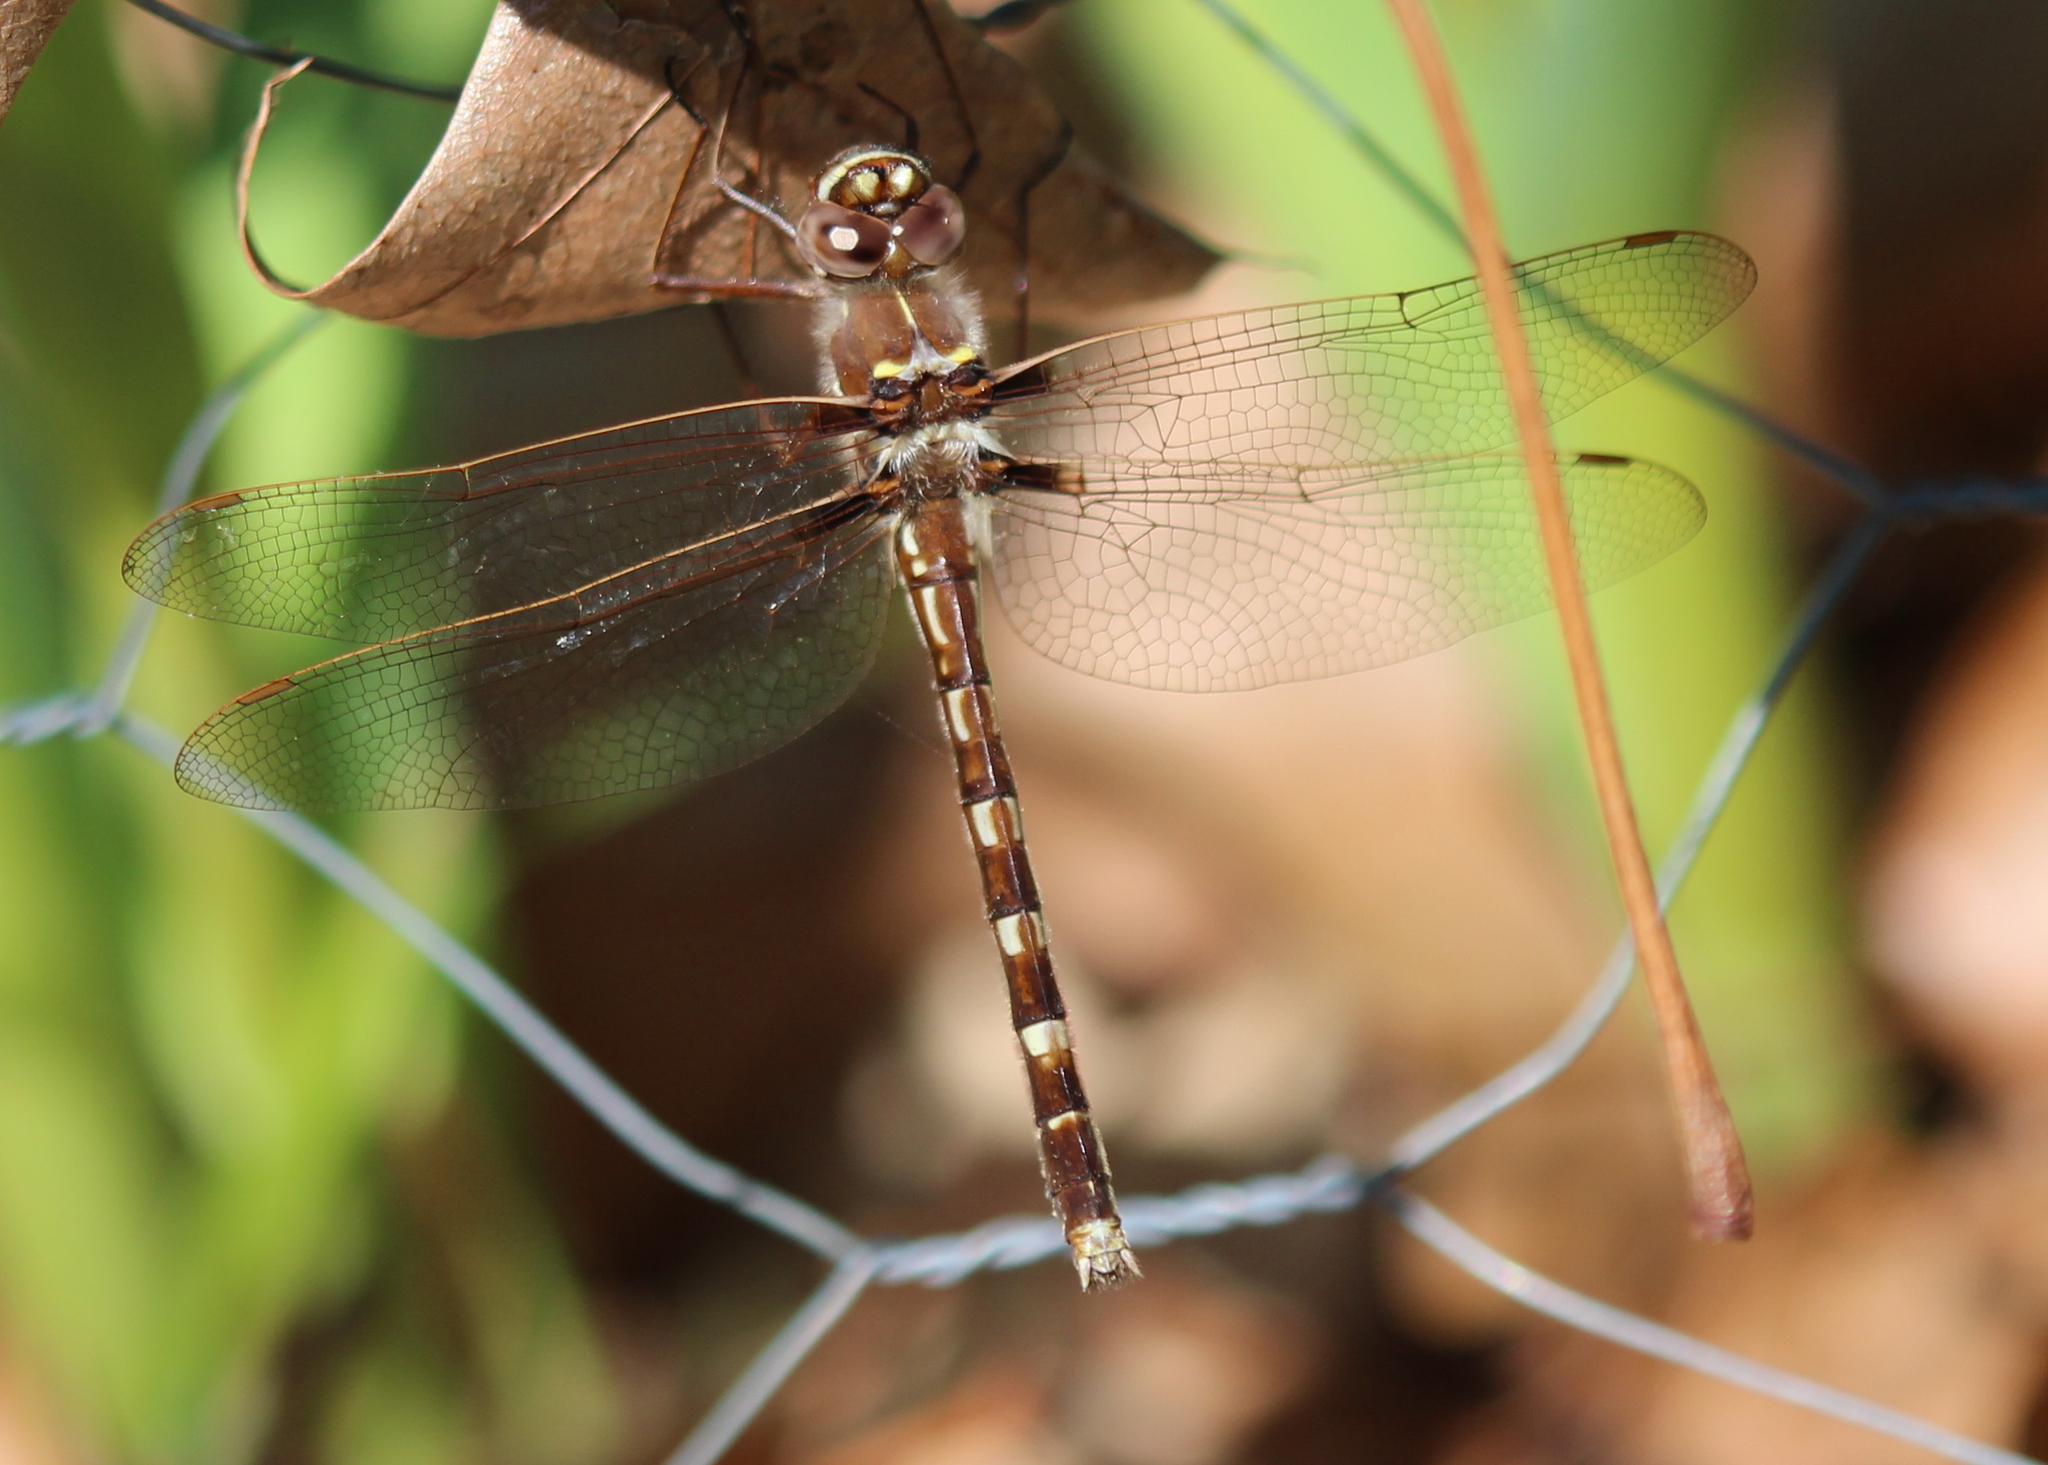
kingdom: Animalia
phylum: Arthropoda
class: Insecta
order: Odonata
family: Macromiidae
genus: Didymops
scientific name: Didymops transversa
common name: Stream cruiser
